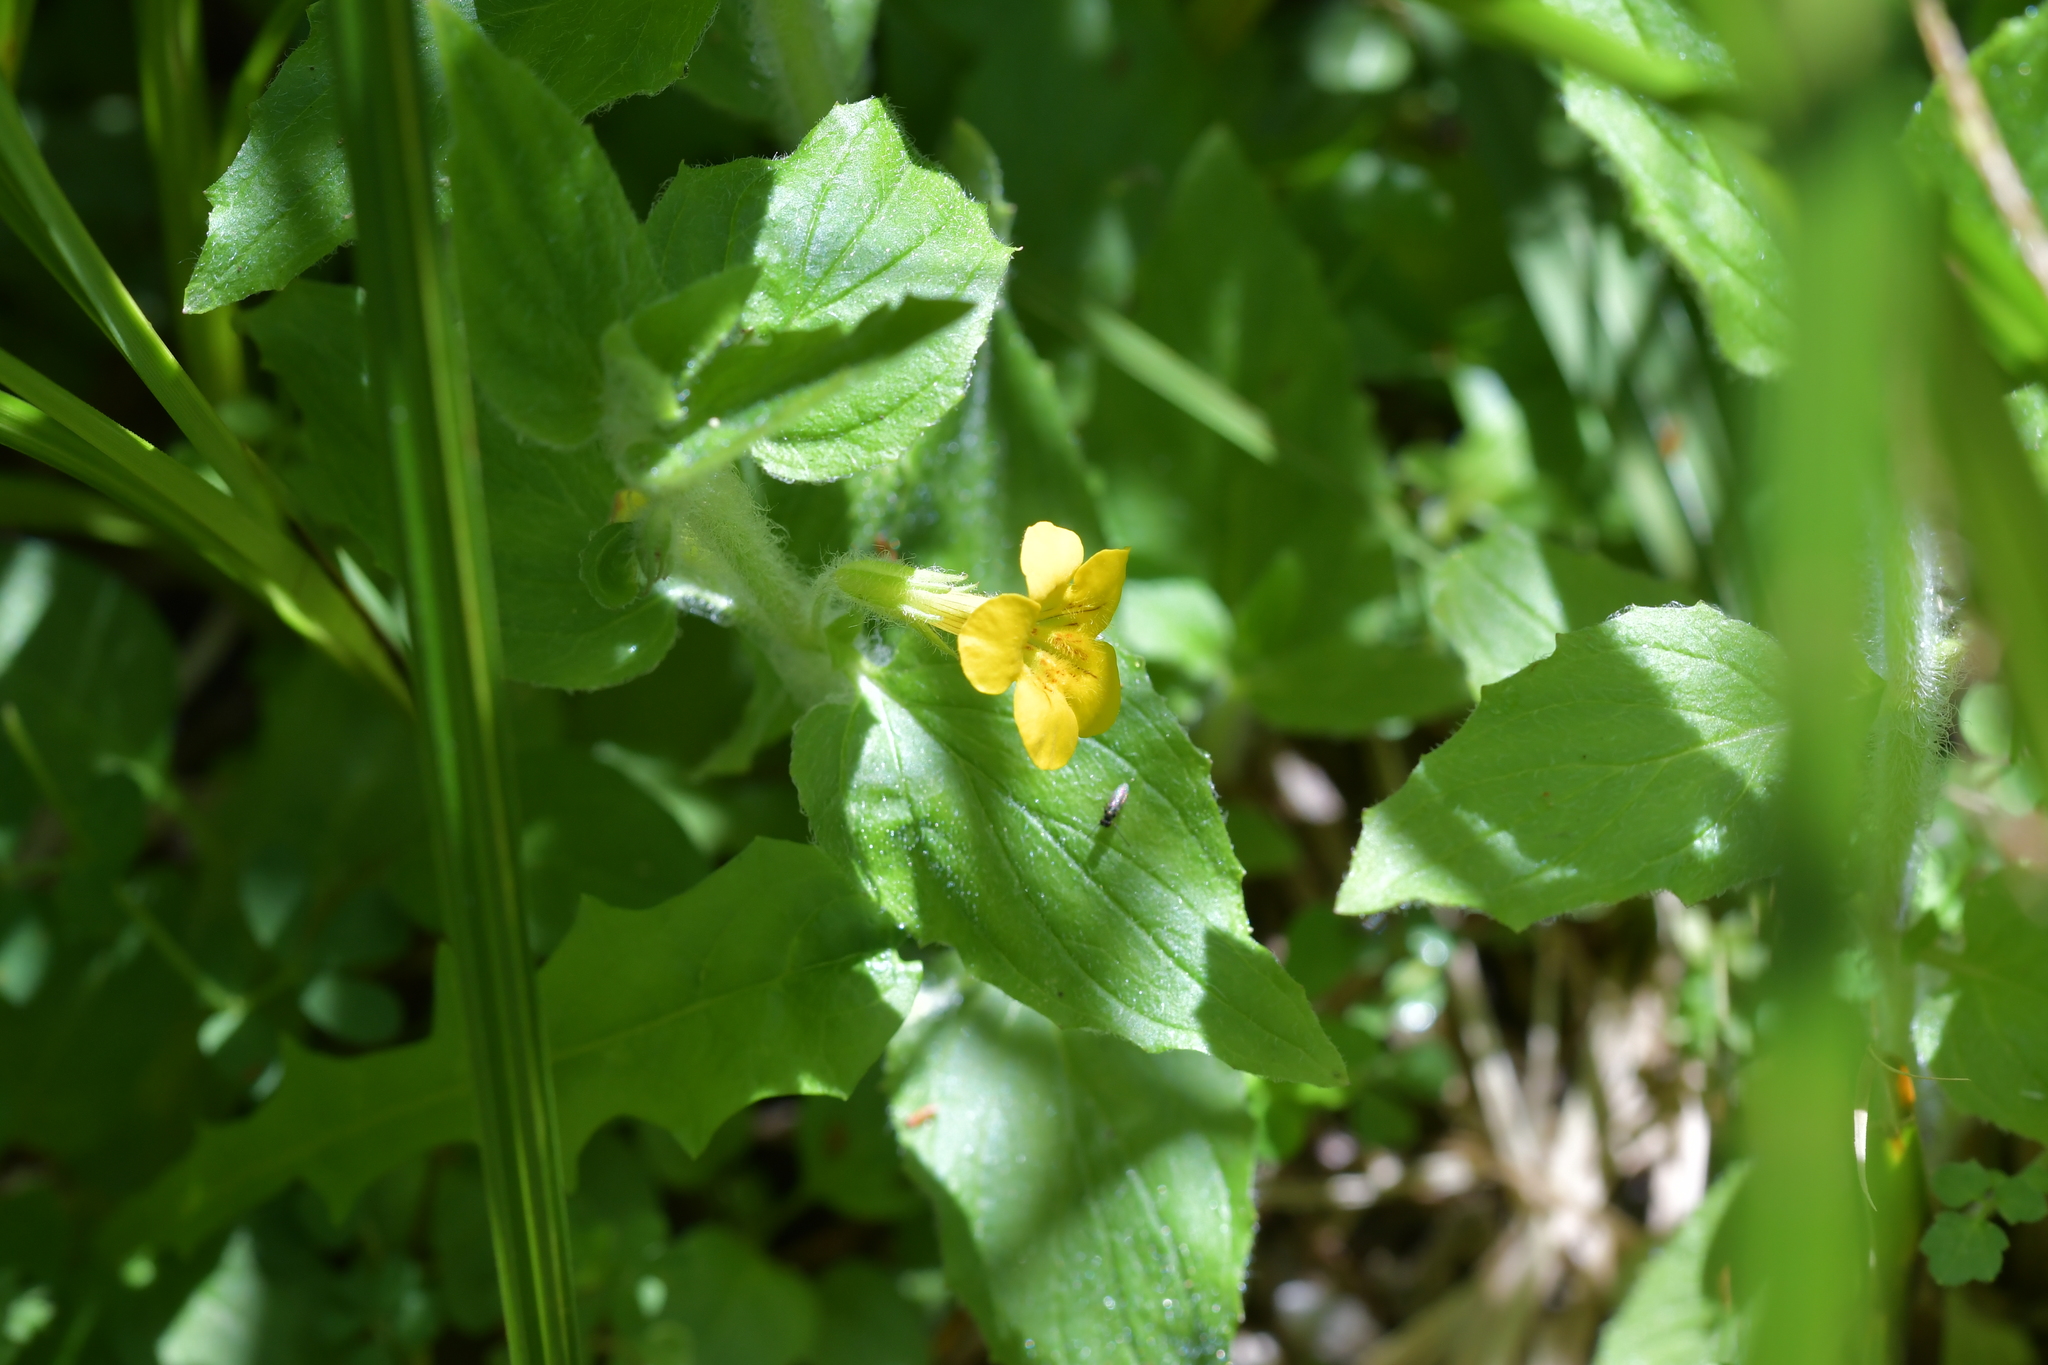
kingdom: Plantae
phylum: Tracheophyta
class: Magnoliopsida
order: Lamiales
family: Phrymaceae
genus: Erythranthe
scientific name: Erythranthe guttata
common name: Monkeyflower
